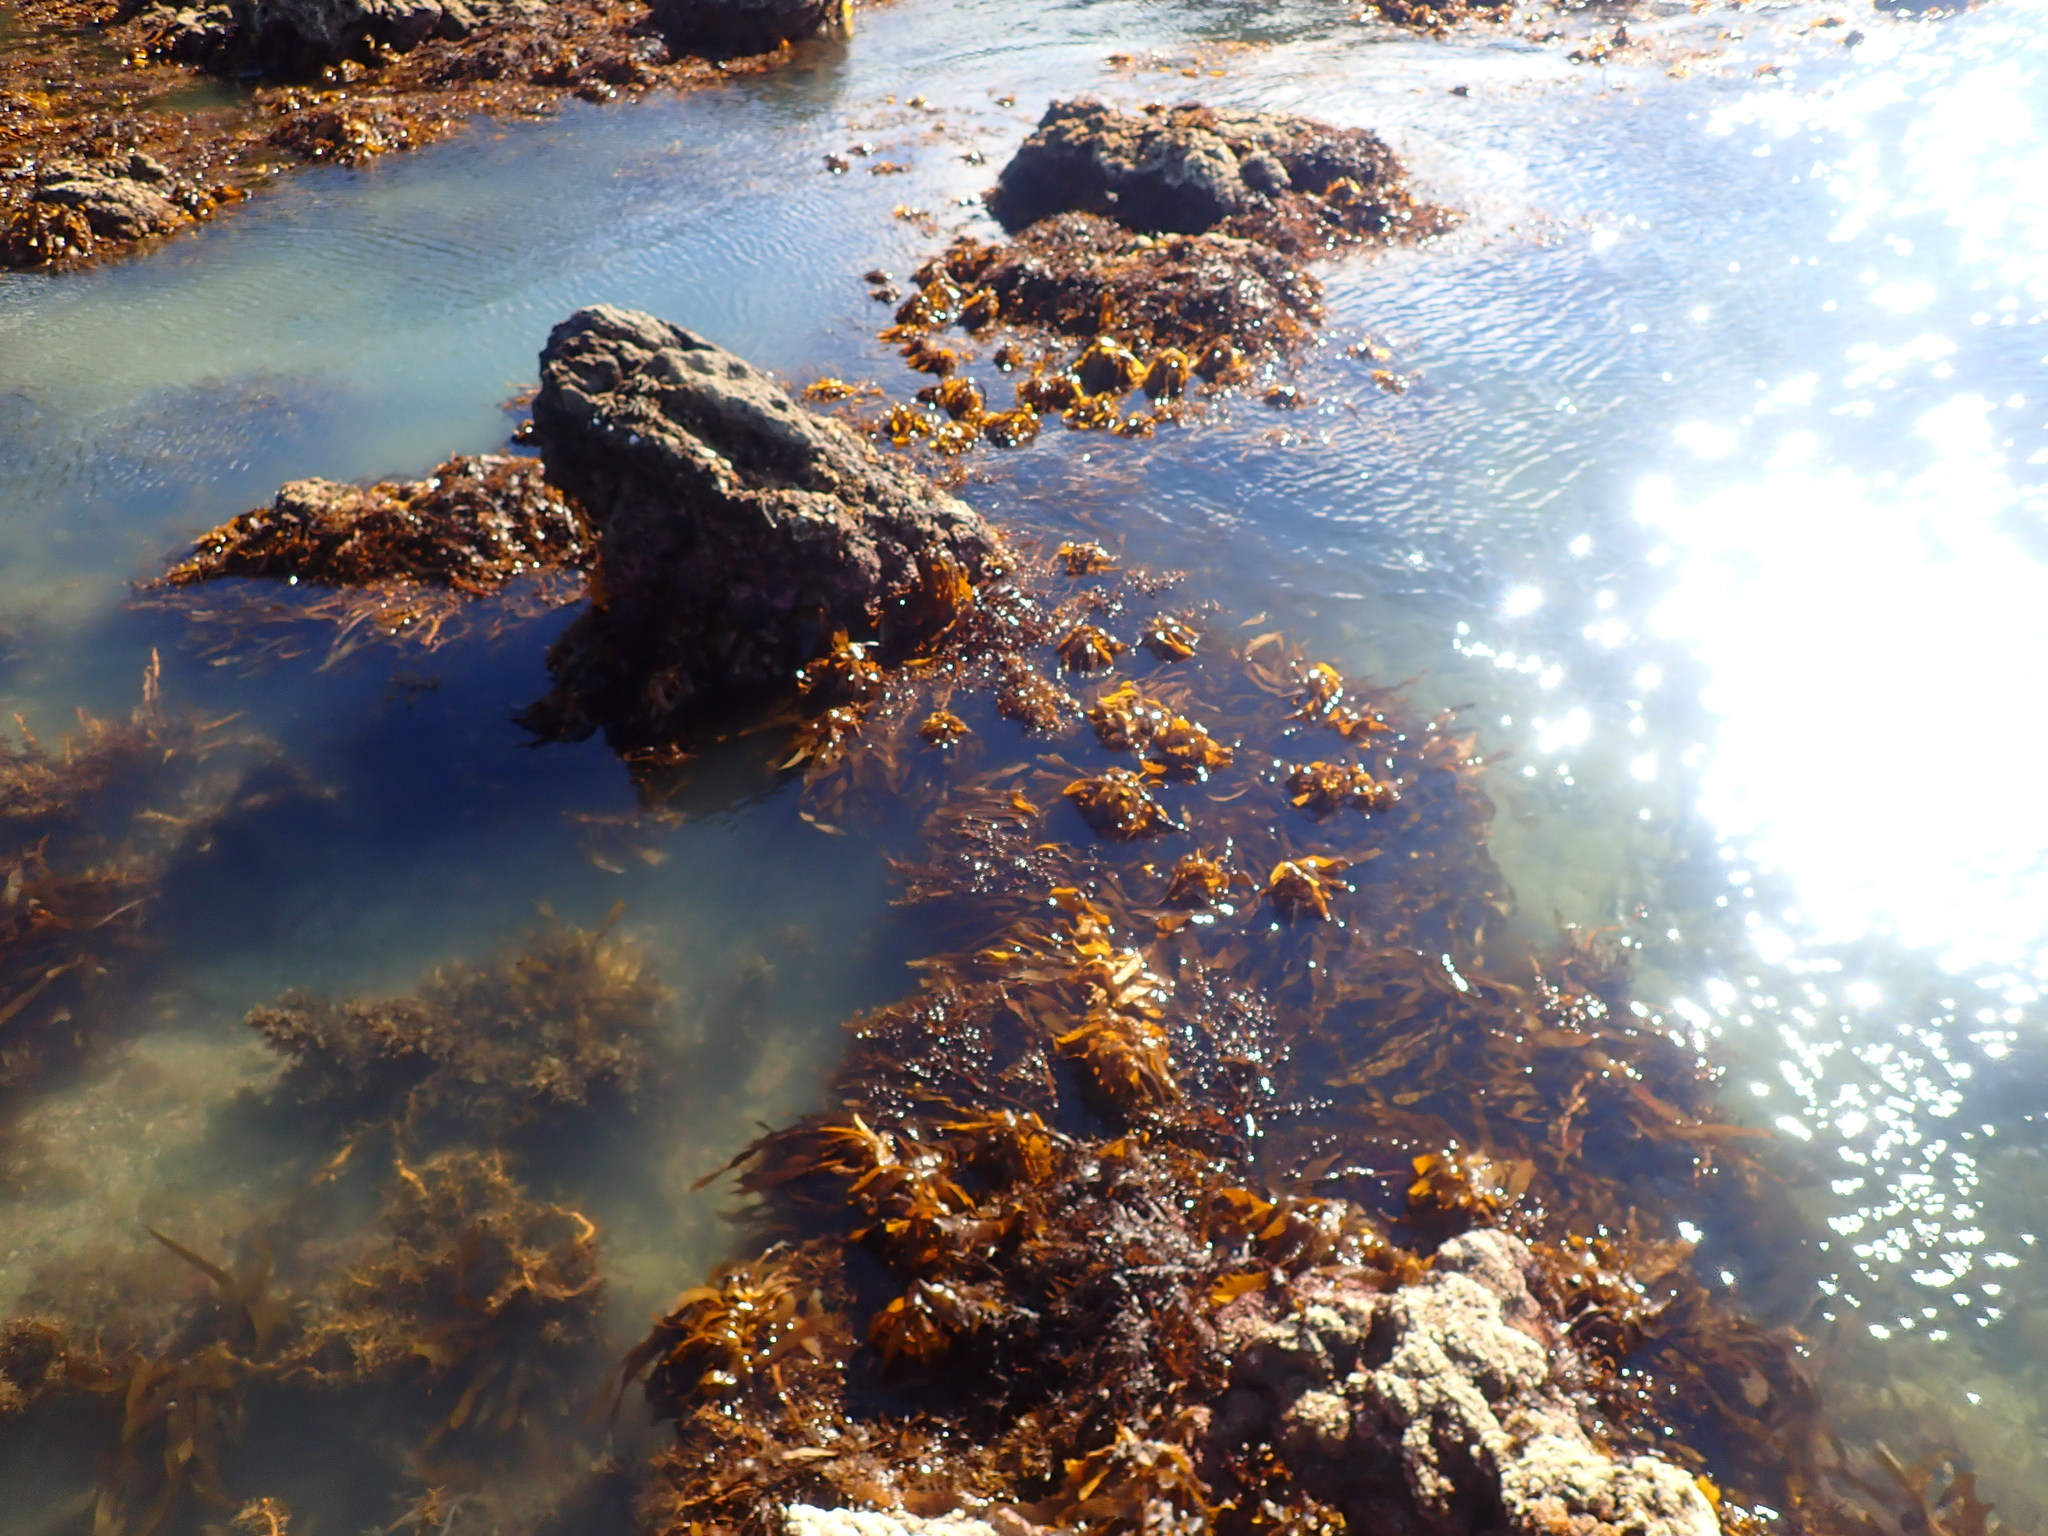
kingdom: Chromista
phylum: Ochrophyta
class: Phaeophyceae
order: Laminariales
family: Lessoniaceae
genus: Ecklonia
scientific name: Ecklonia radiata
